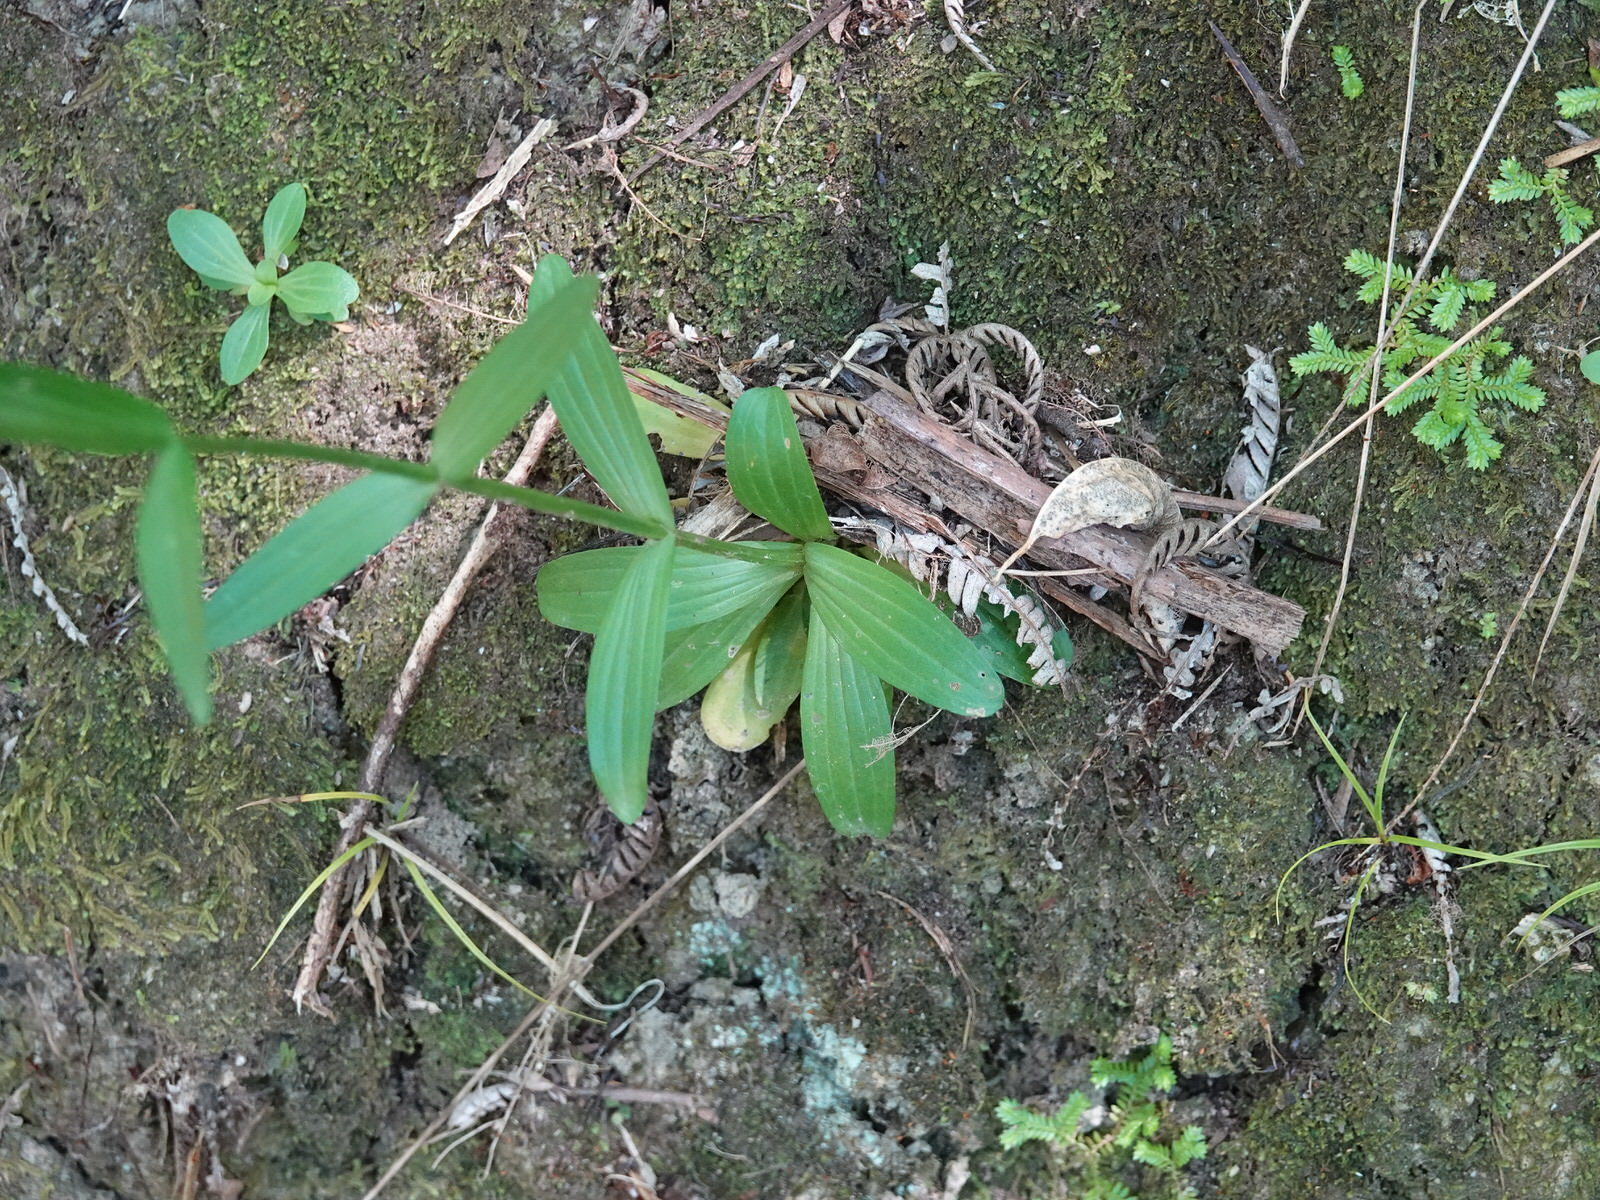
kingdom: Plantae
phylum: Tracheophyta
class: Magnoliopsida
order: Gentianales
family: Gentianaceae
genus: Centaurium
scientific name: Centaurium erythraea
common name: Common centaury
